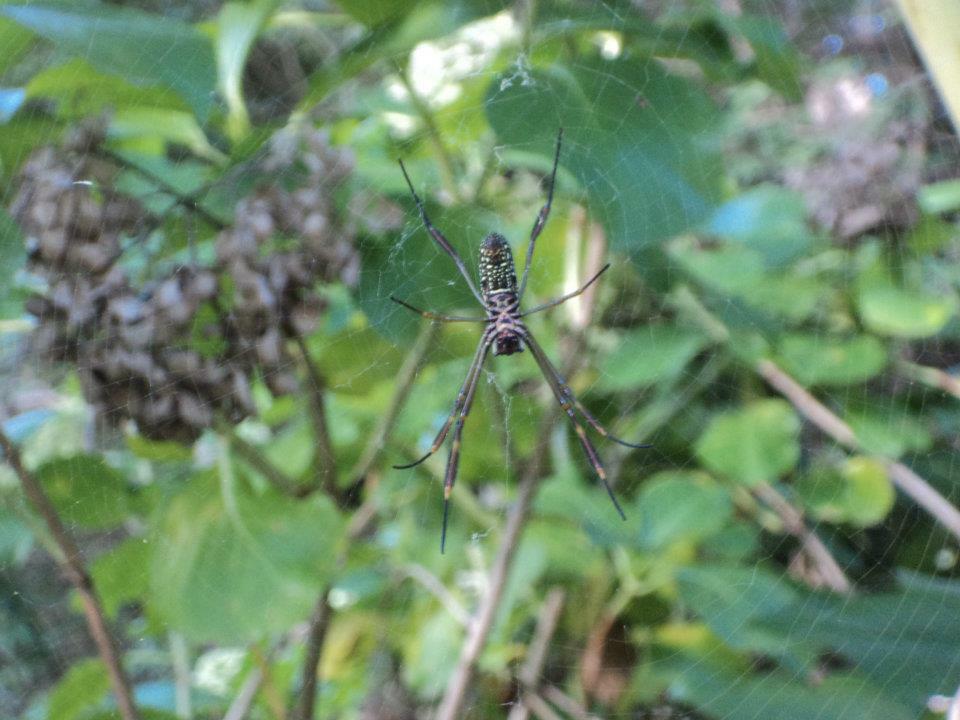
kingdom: Animalia
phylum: Arthropoda
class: Arachnida
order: Araneae
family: Araneidae
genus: Trichonephila
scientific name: Trichonephila clavipes
